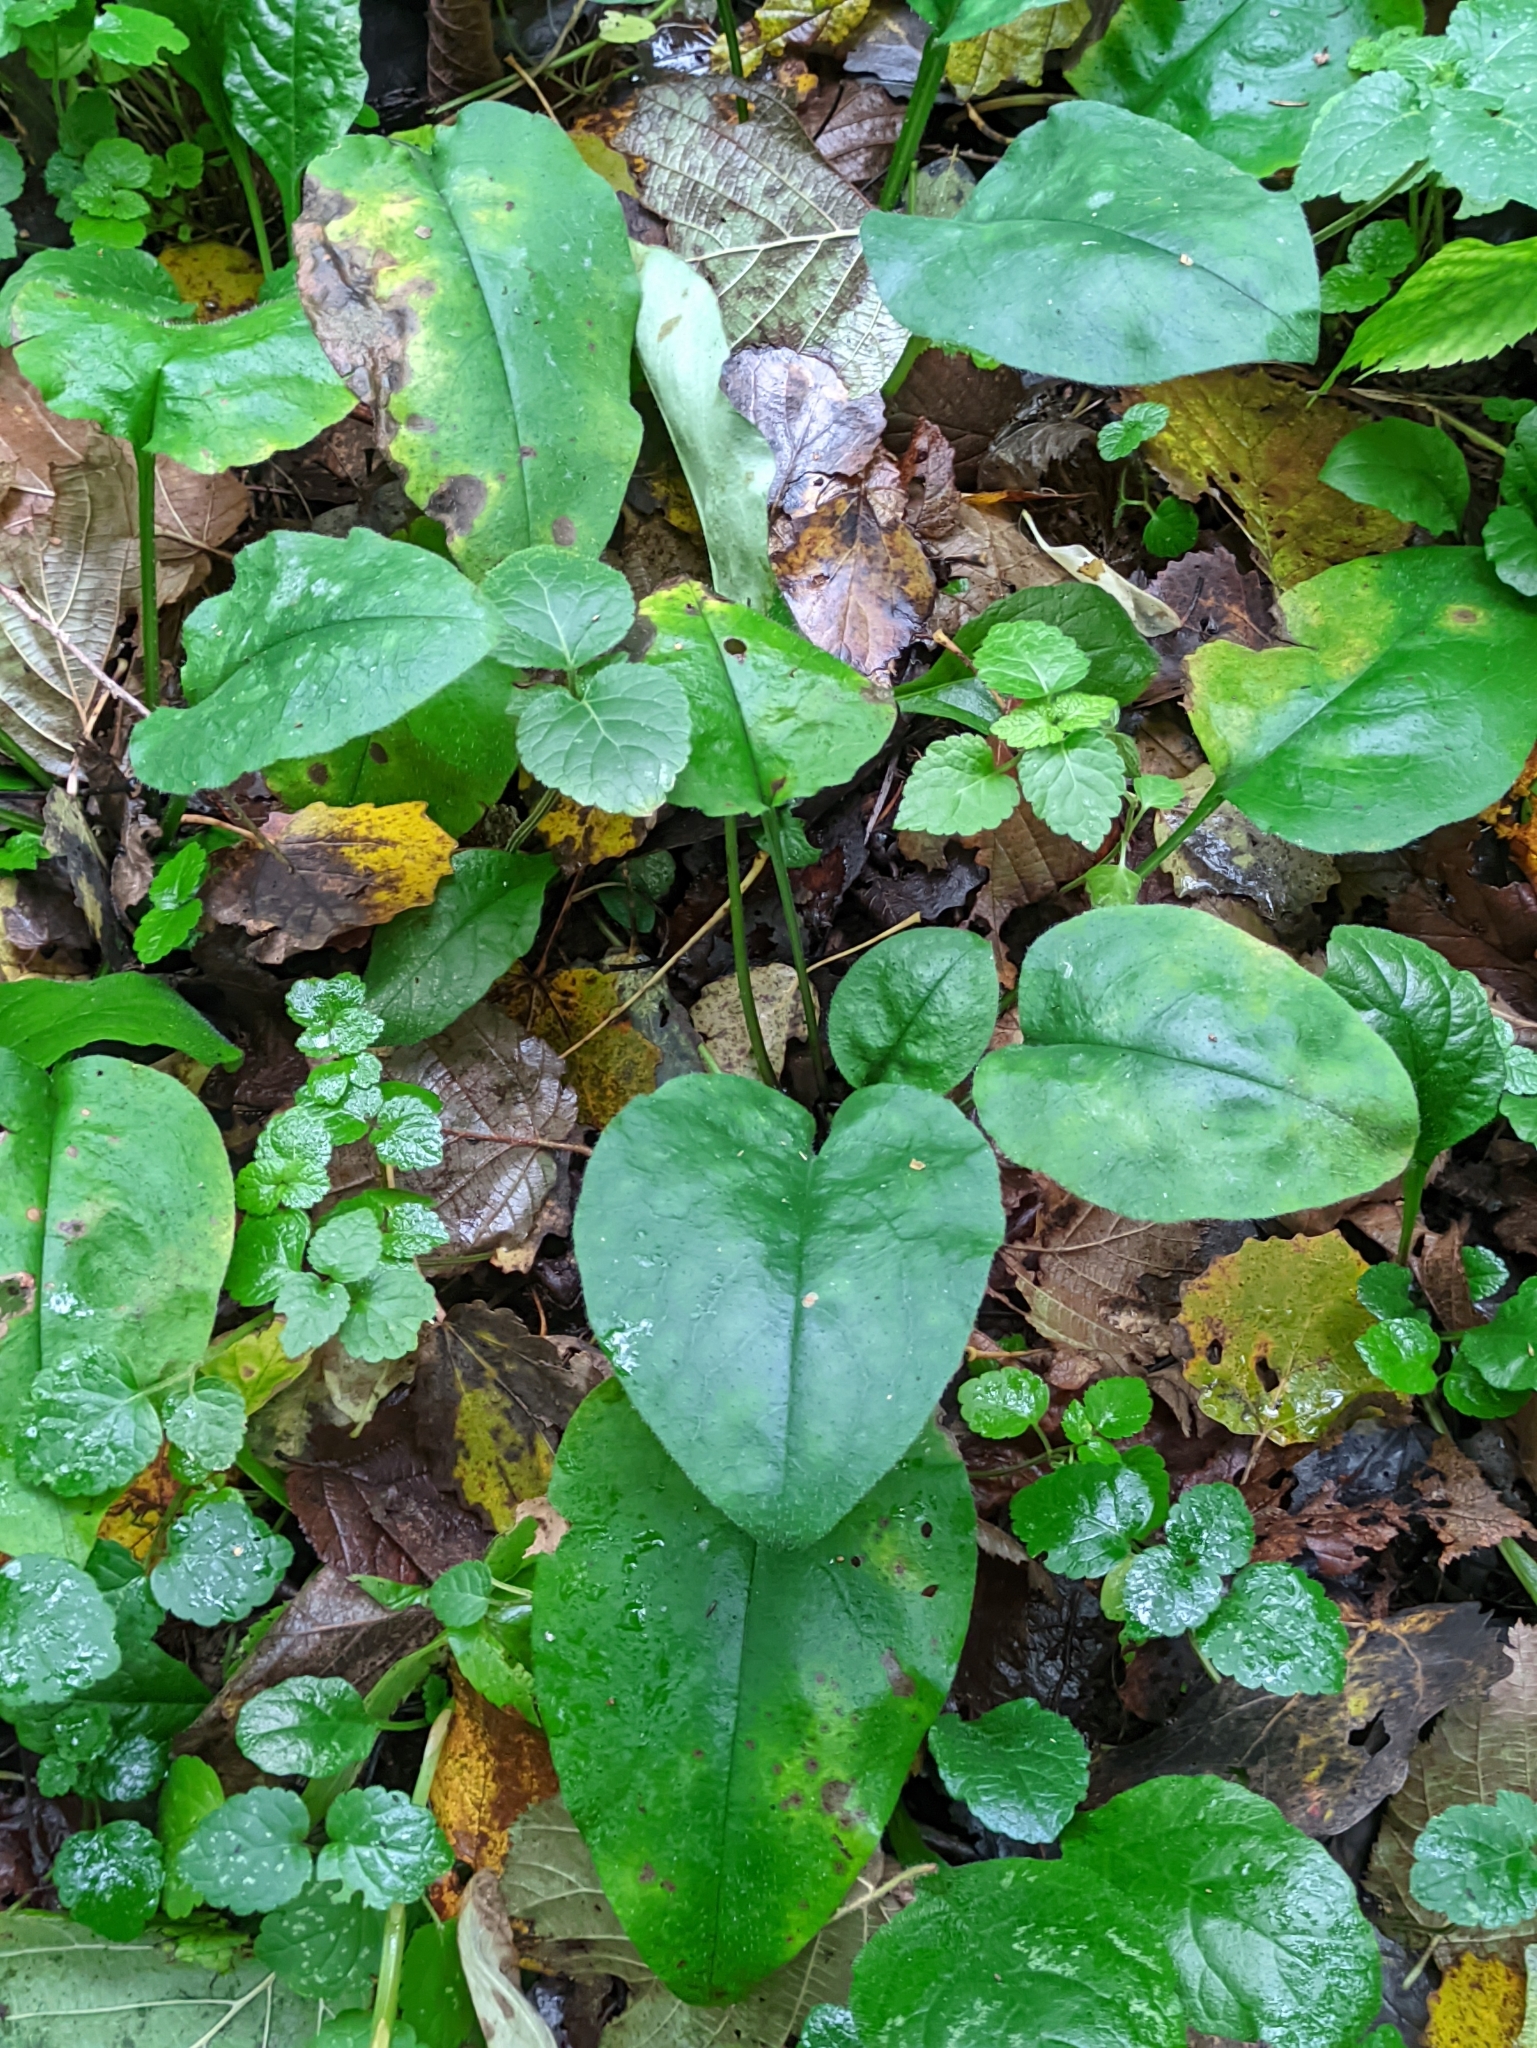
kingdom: Plantae
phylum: Tracheophyta
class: Magnoliopsida
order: Boraginales
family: Boraginaceae
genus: Pulmonaria
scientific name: Pulmonaria obscura
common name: Suffolk lungwort
